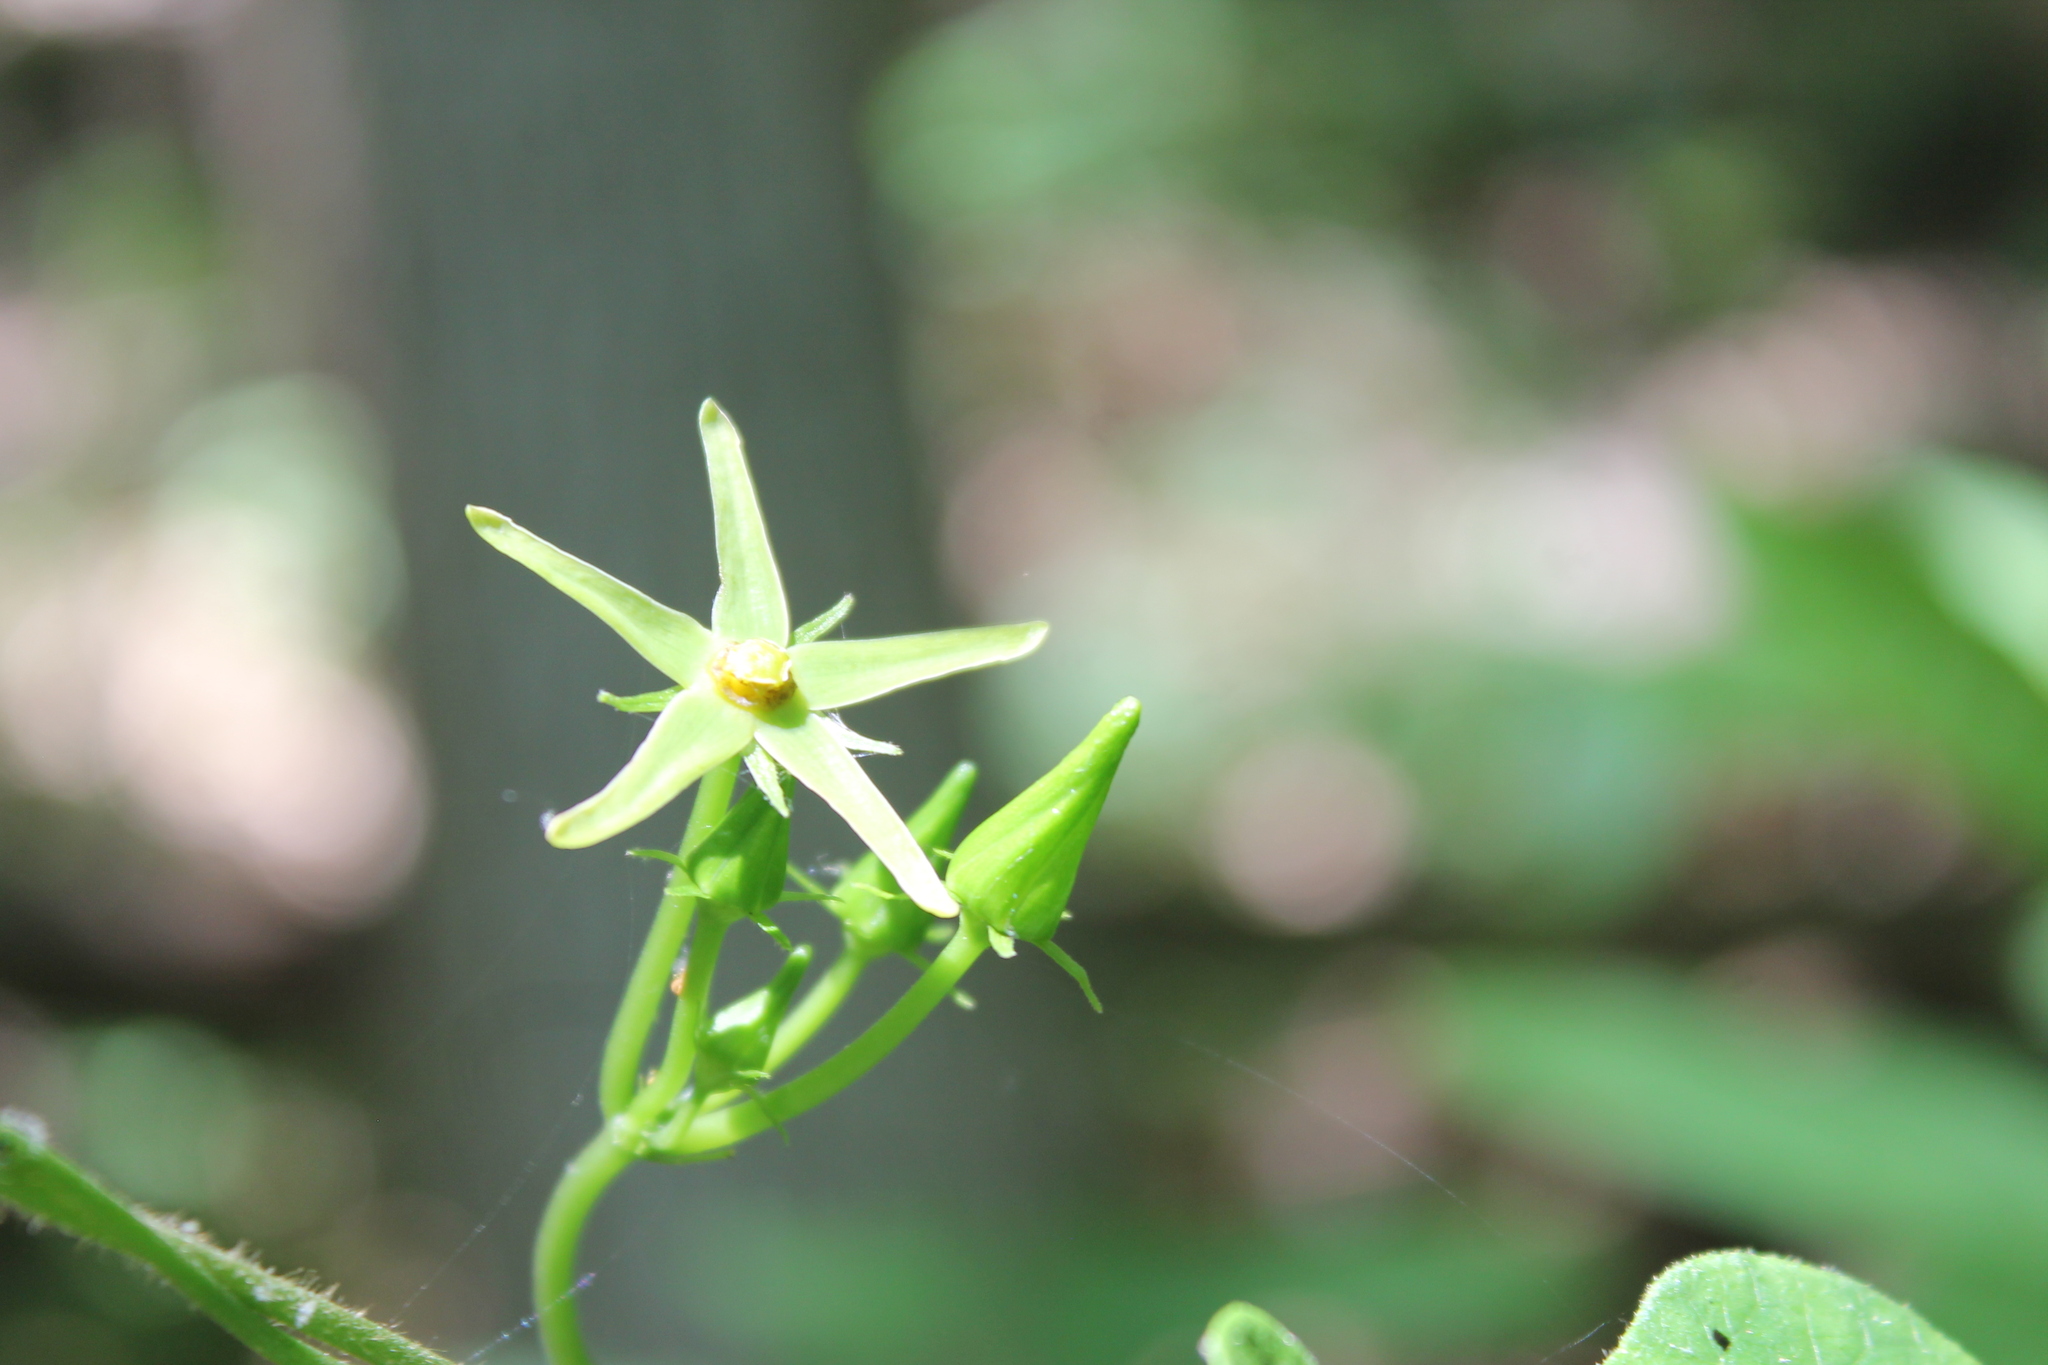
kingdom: Plantae
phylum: Tracheophyta
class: Magnoliopsida
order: Gentianales
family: Apocynaceae
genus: Gonolobus
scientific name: Gonolobus suberosus
